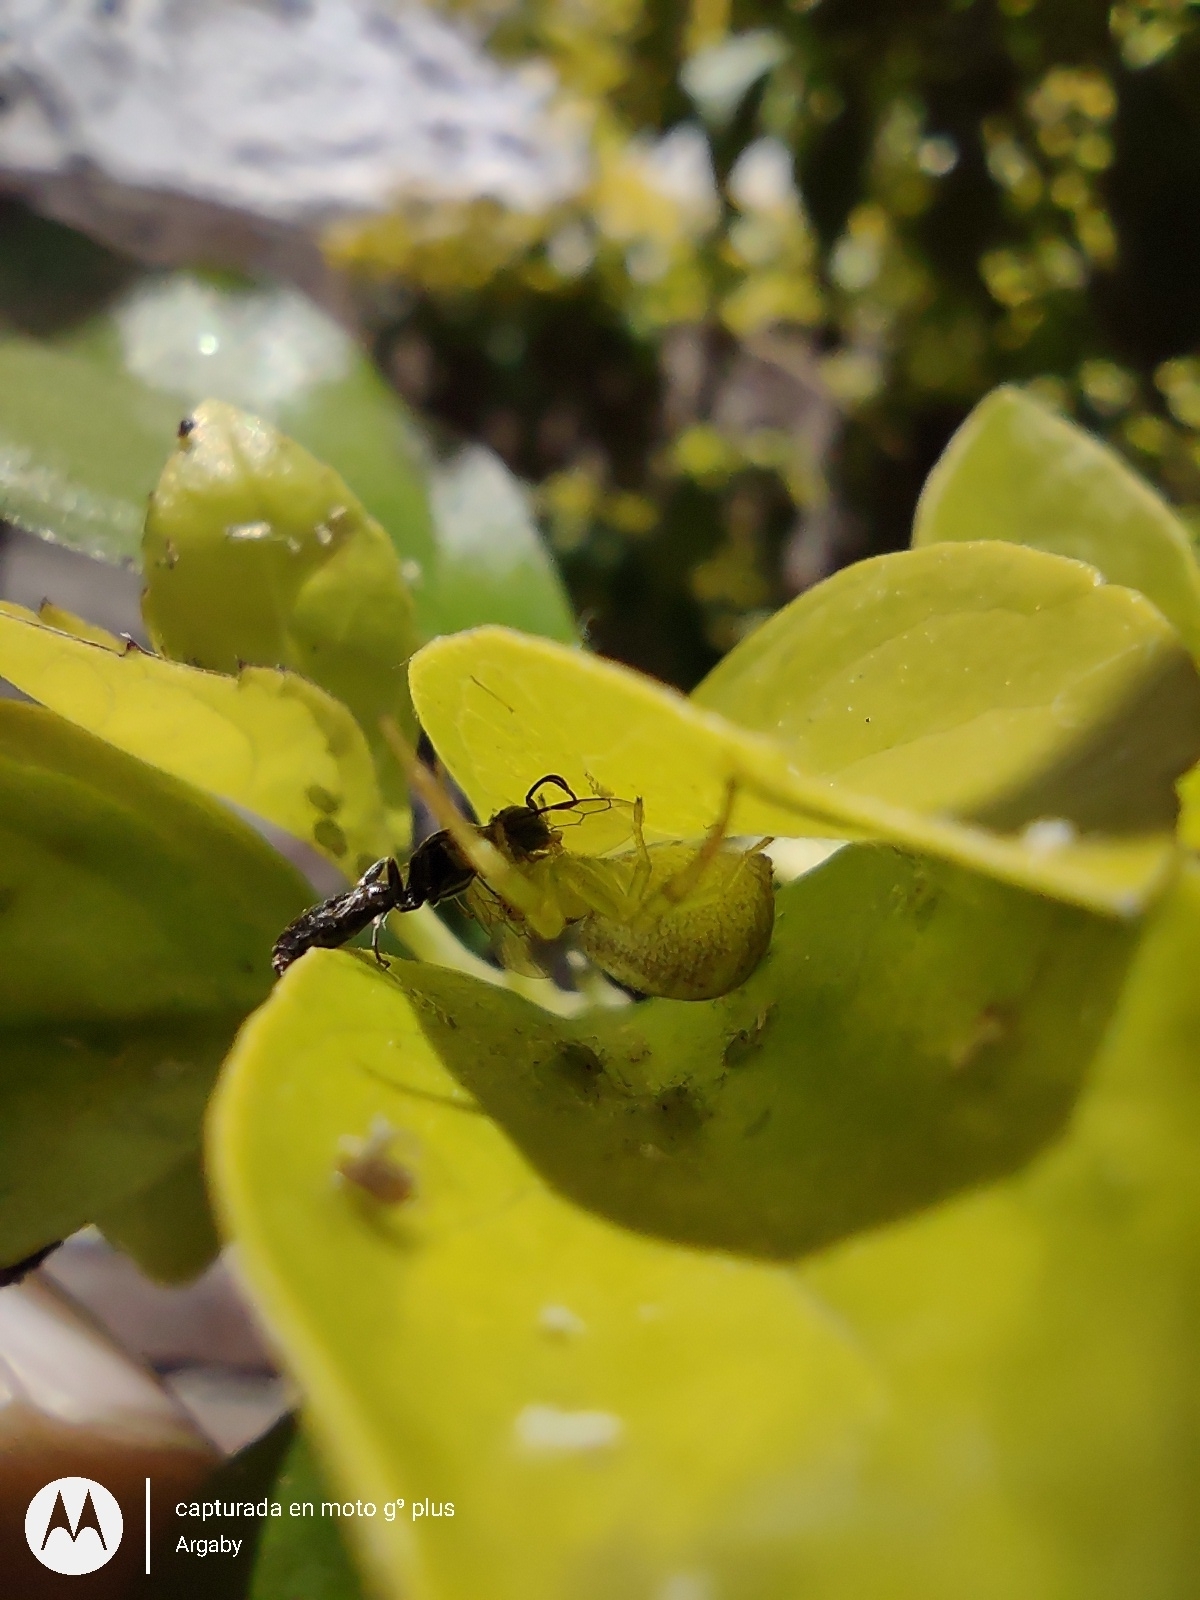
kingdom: Animalia
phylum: Arthropoda
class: Arachnida
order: Araneae
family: Thomisidae
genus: Misumenops
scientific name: Misumenops
